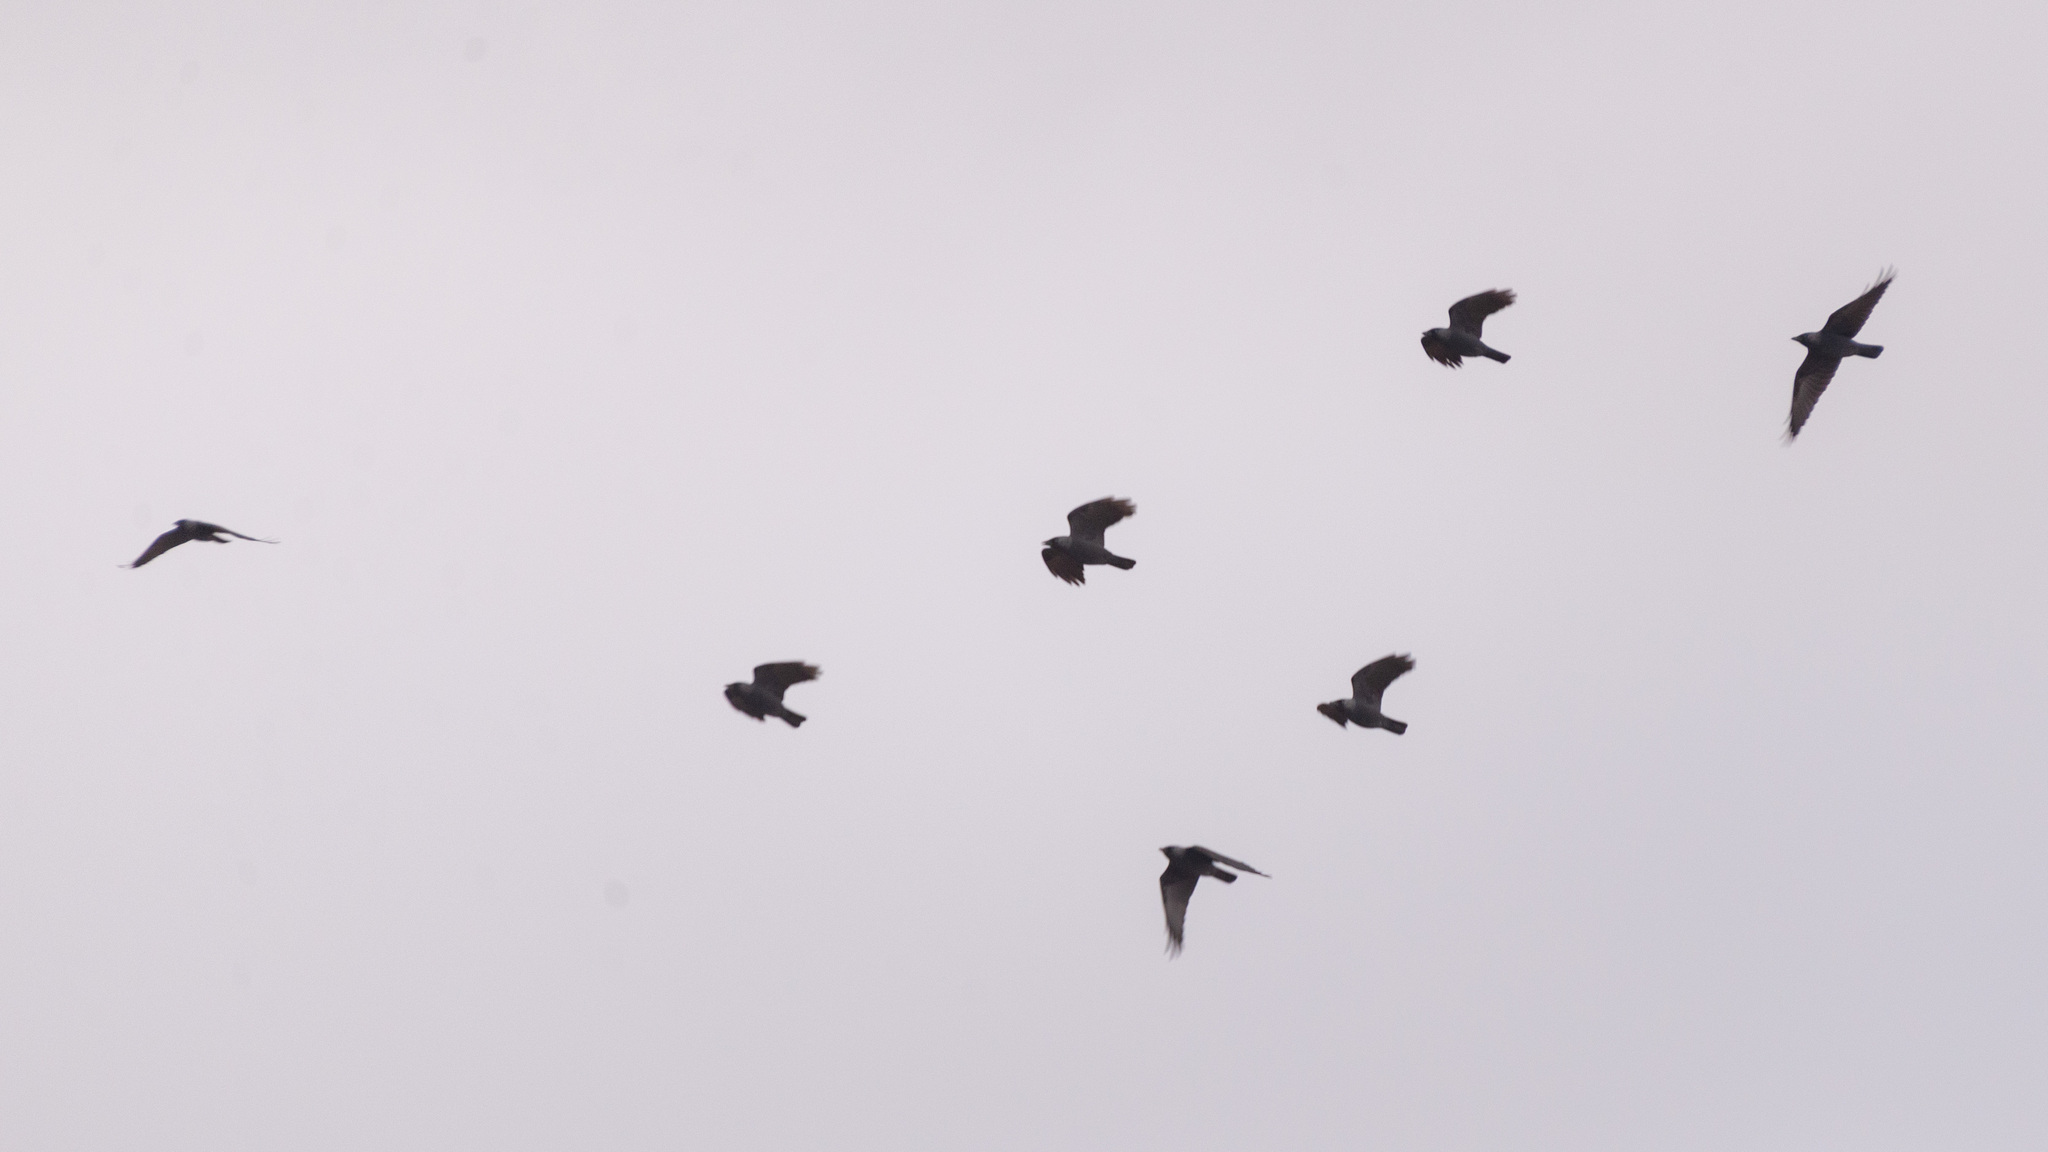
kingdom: Animalia
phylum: Chordata
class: Aves
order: Passeriformes
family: Corvidae
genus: Coloeus
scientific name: Coloeus monedula
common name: Western jackdaw
